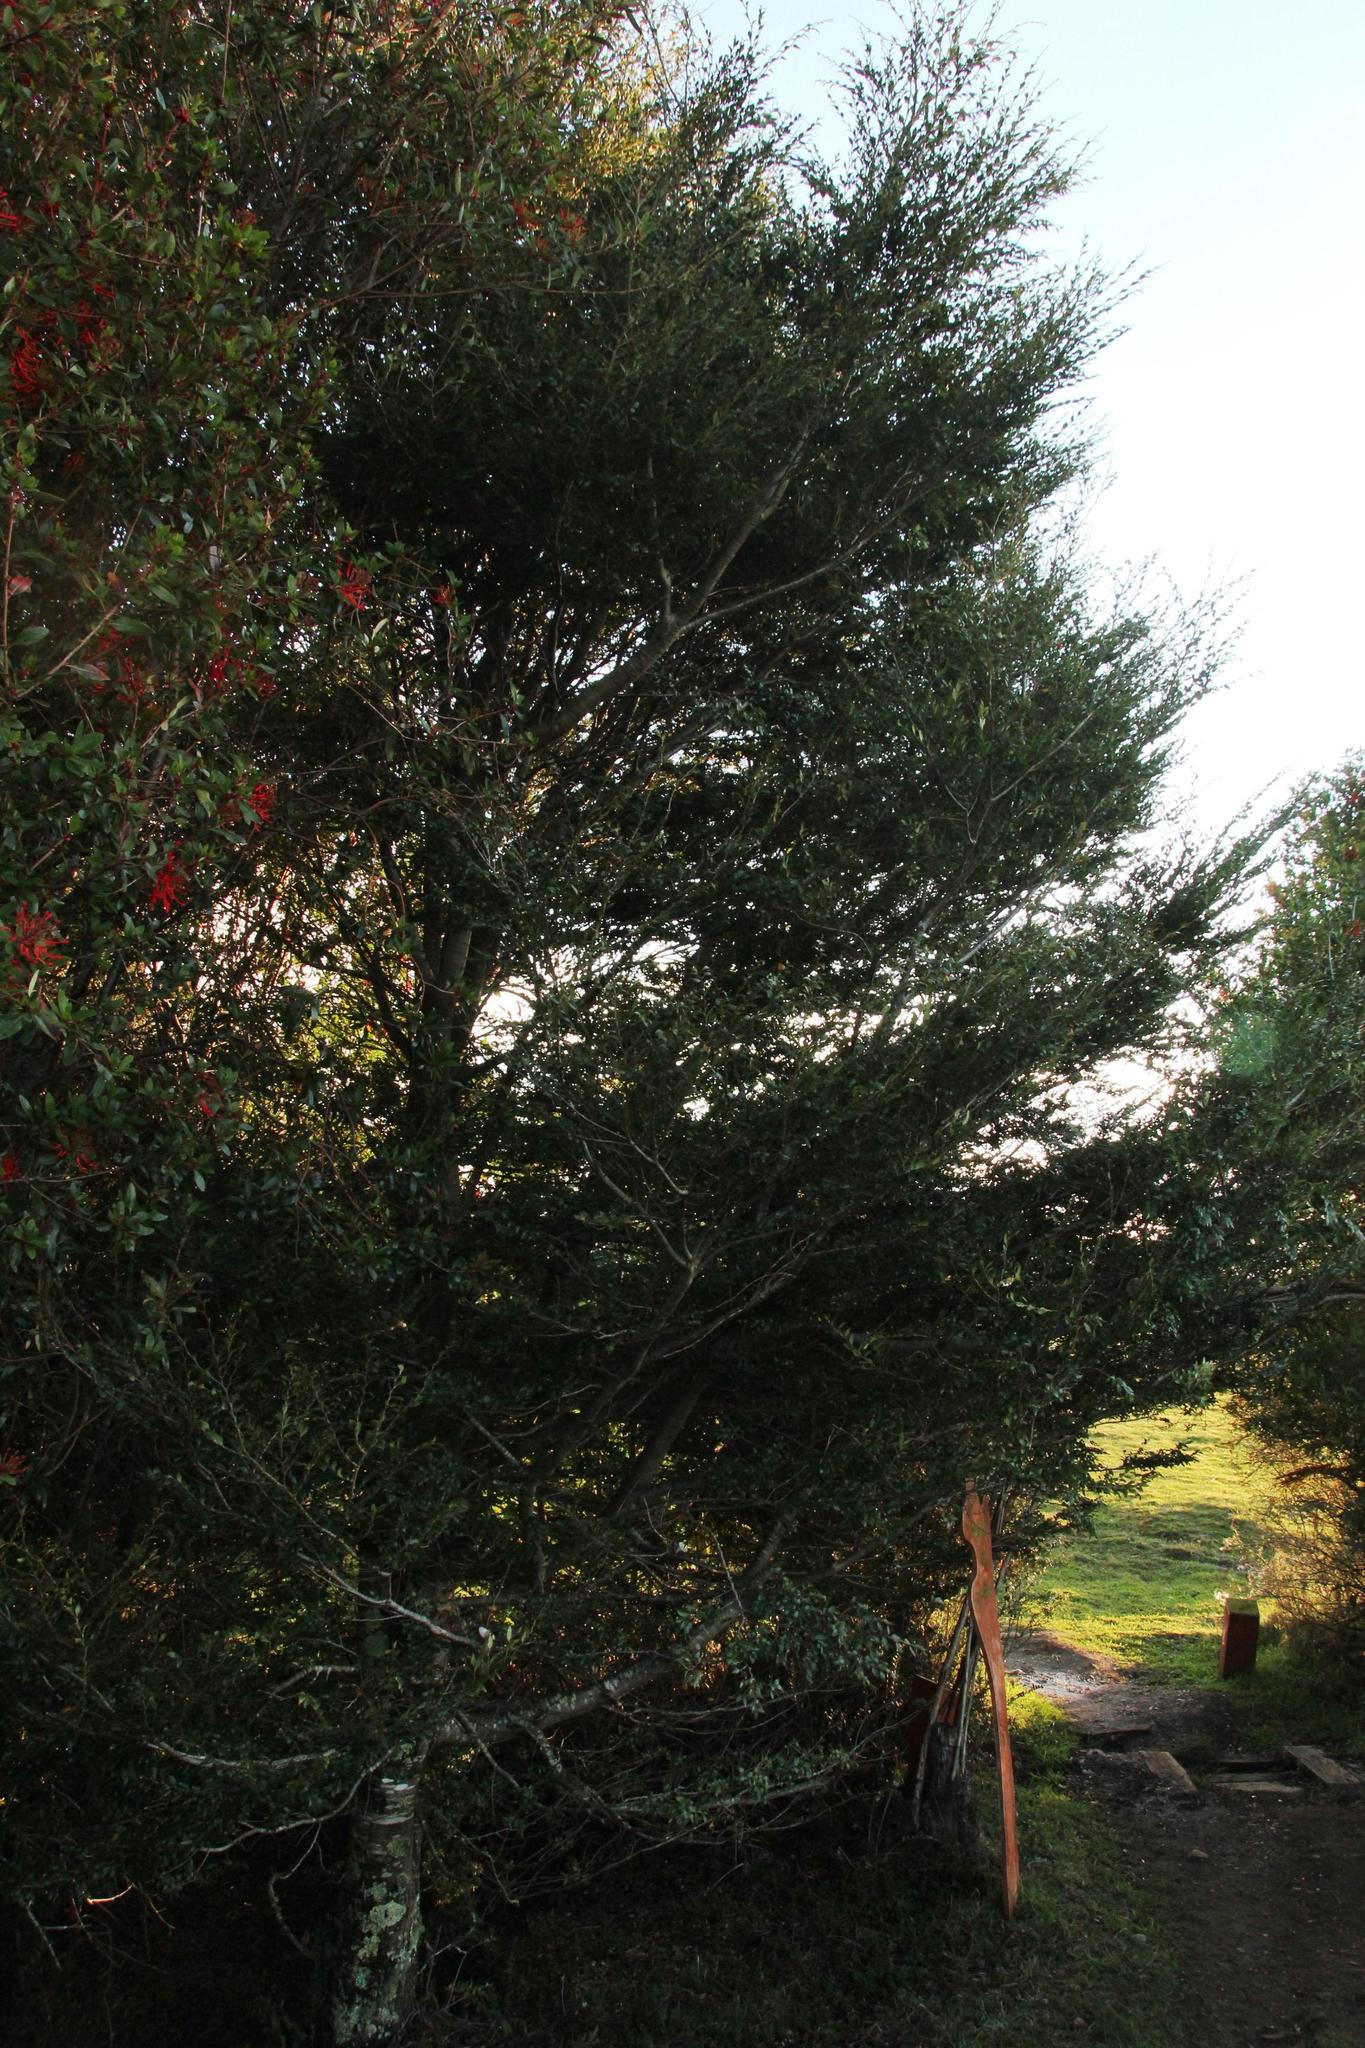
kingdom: Plantae
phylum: Tracheophyta
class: Magnoliopsida
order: Fagales
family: Nothofagaceae
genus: Nothofagus
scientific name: Nothofagus nitida
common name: Chiloé's coigue
